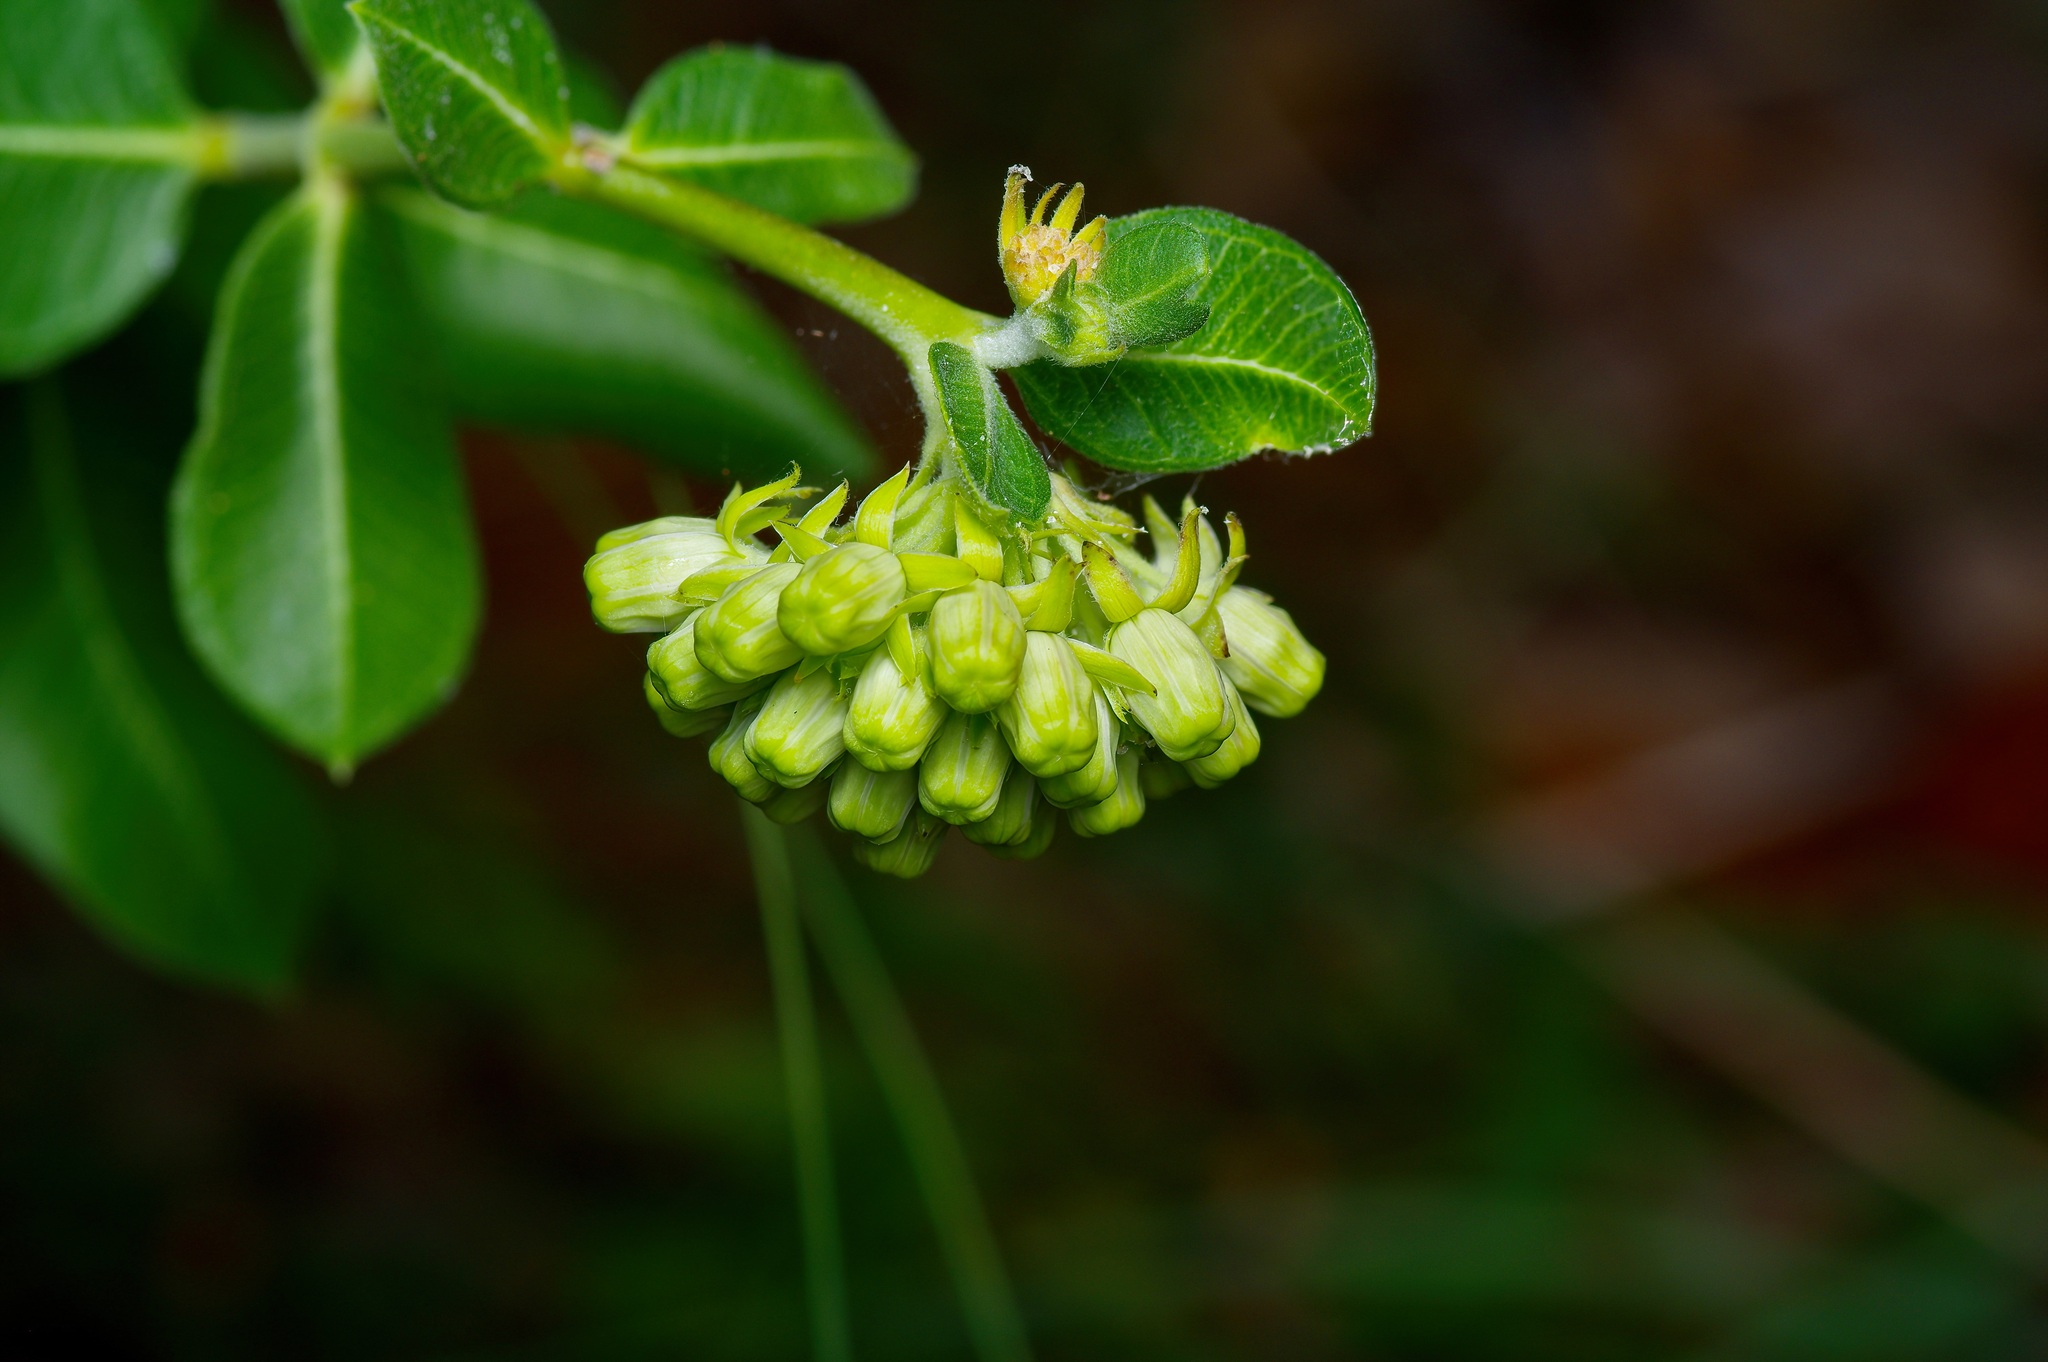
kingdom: Plantae
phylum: Tracheophyta
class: Magnoliopsida
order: Gentianales
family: Apocynaceae
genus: Asclepias
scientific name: Asclepias viridiflora
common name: Green comet milkweed
